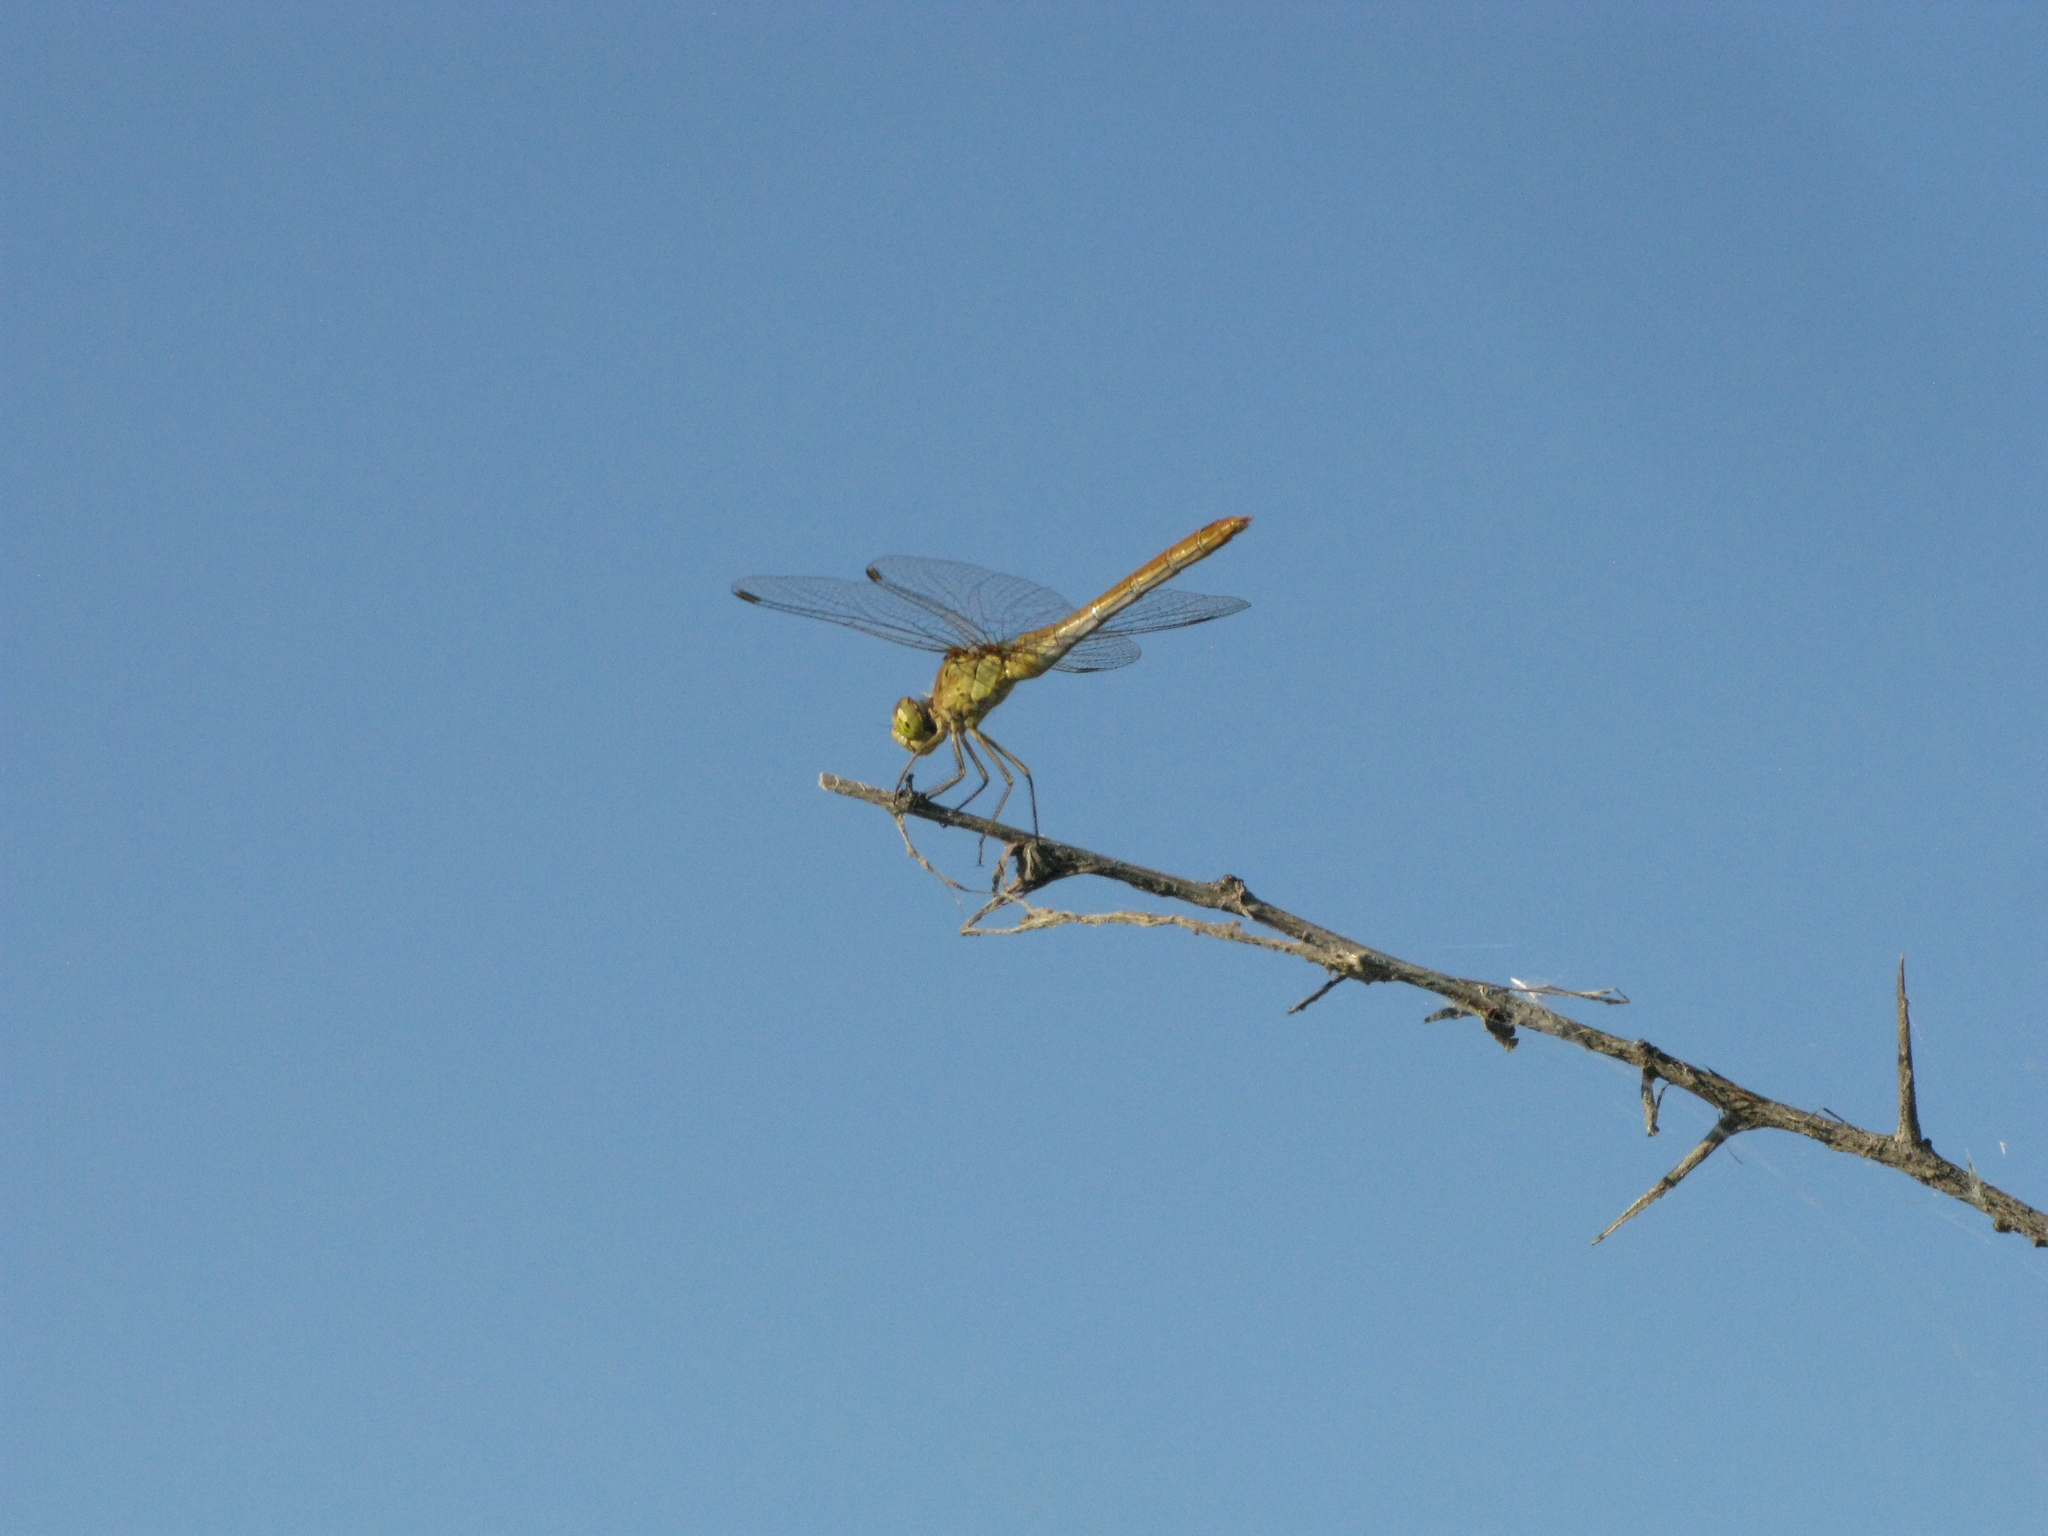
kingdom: Animalia
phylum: Arthropoda
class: Insecta
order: Odonata
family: Libellulidae
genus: Sympetrum
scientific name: Sympetrum meridionale
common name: Southern darter
